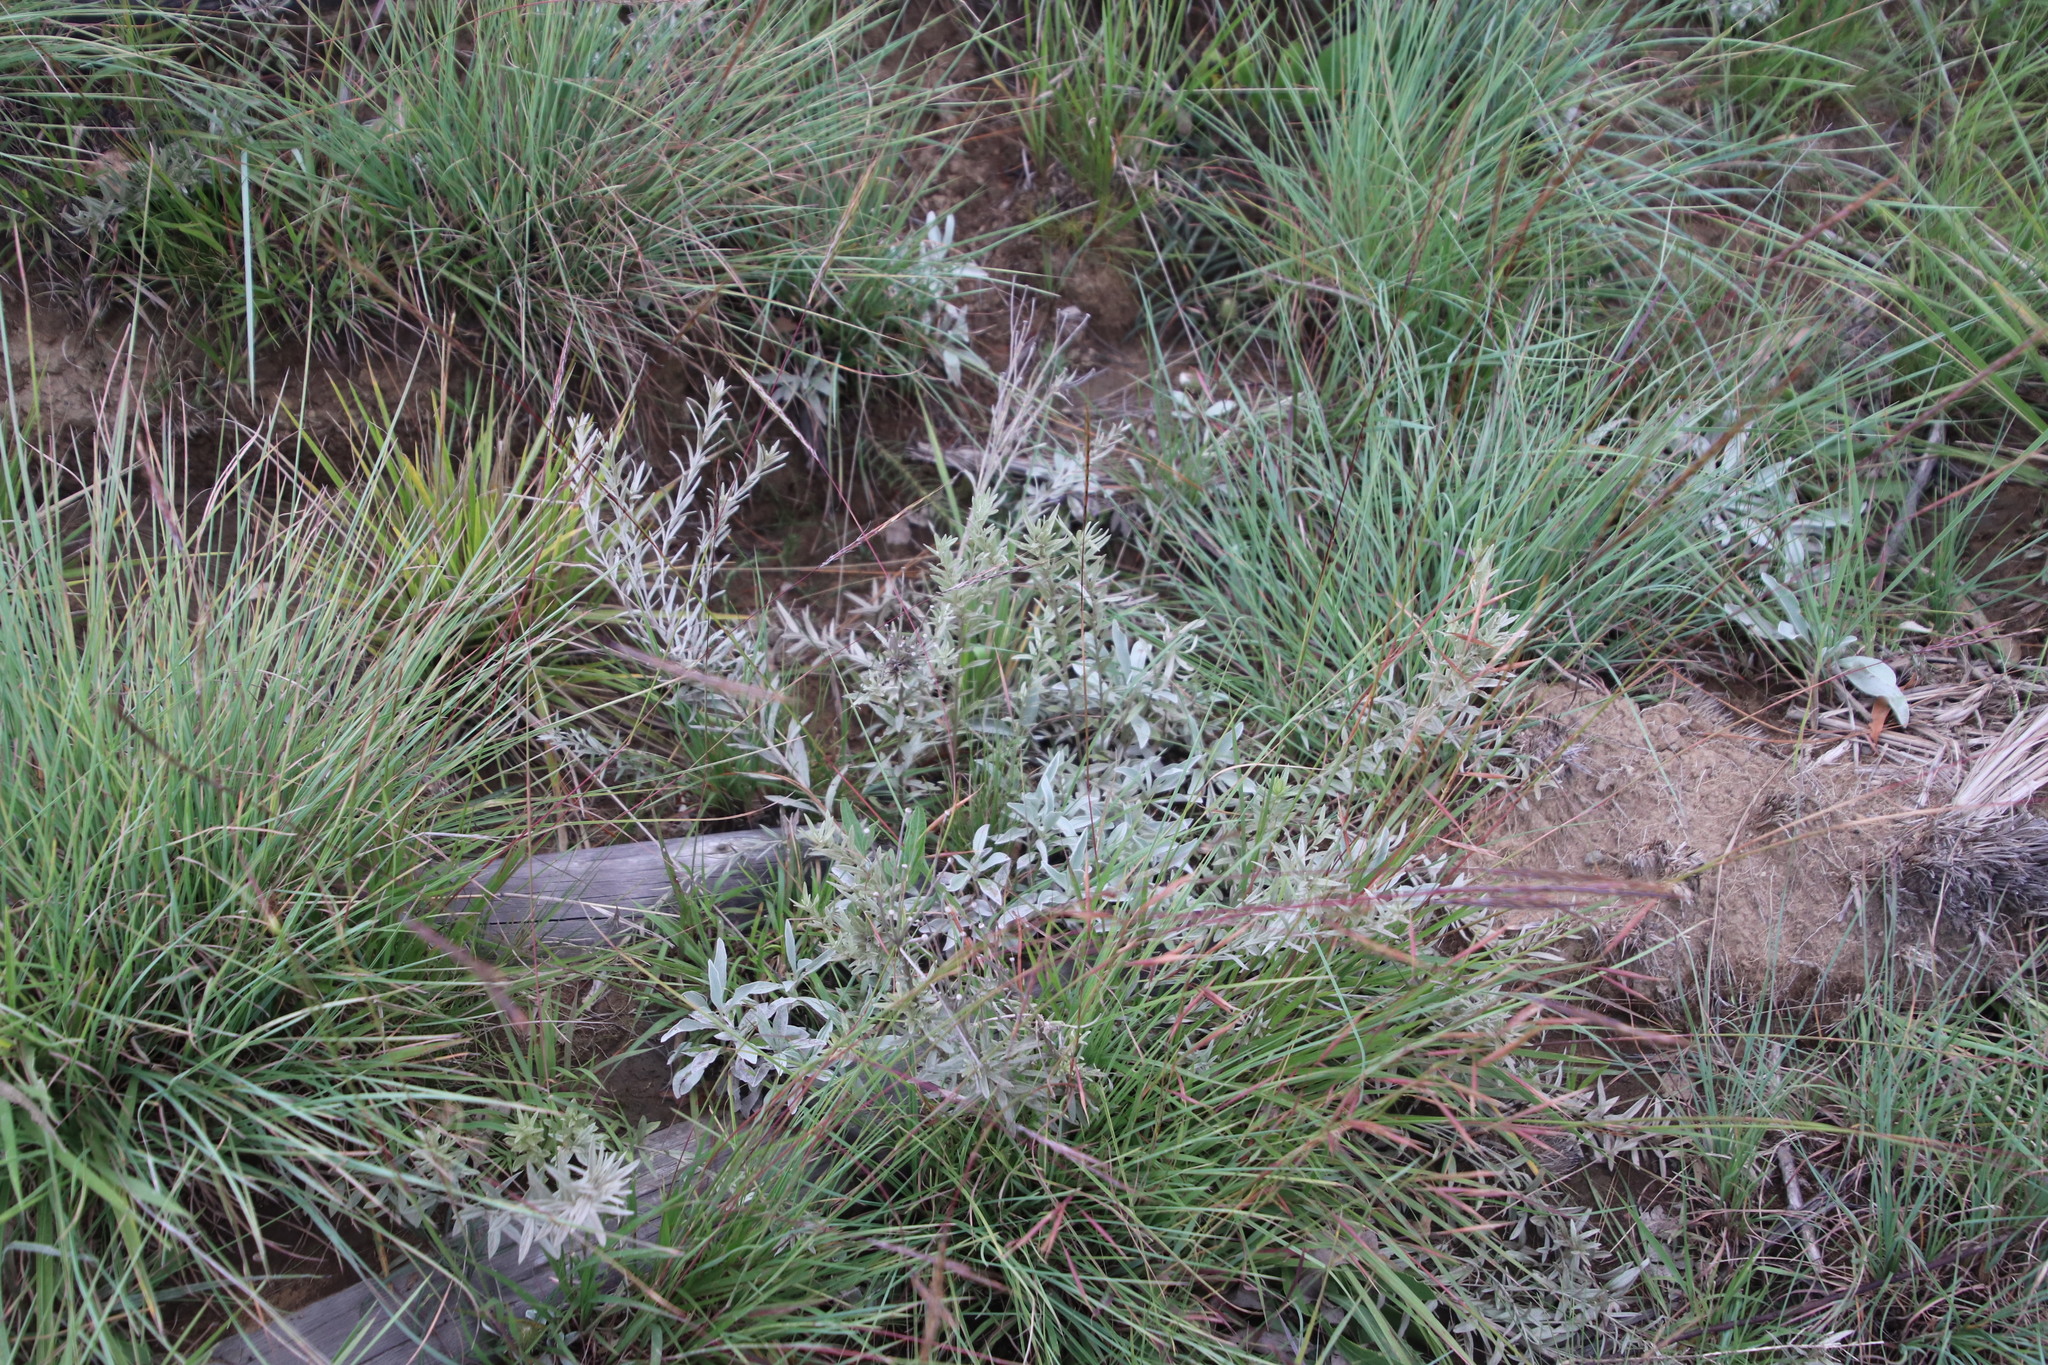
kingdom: Plantae
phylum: Tracheophyta
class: Magnoliopsida
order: Asterales
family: Asteraceae
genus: Hilliardiella
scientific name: Hilliardiella aristata
